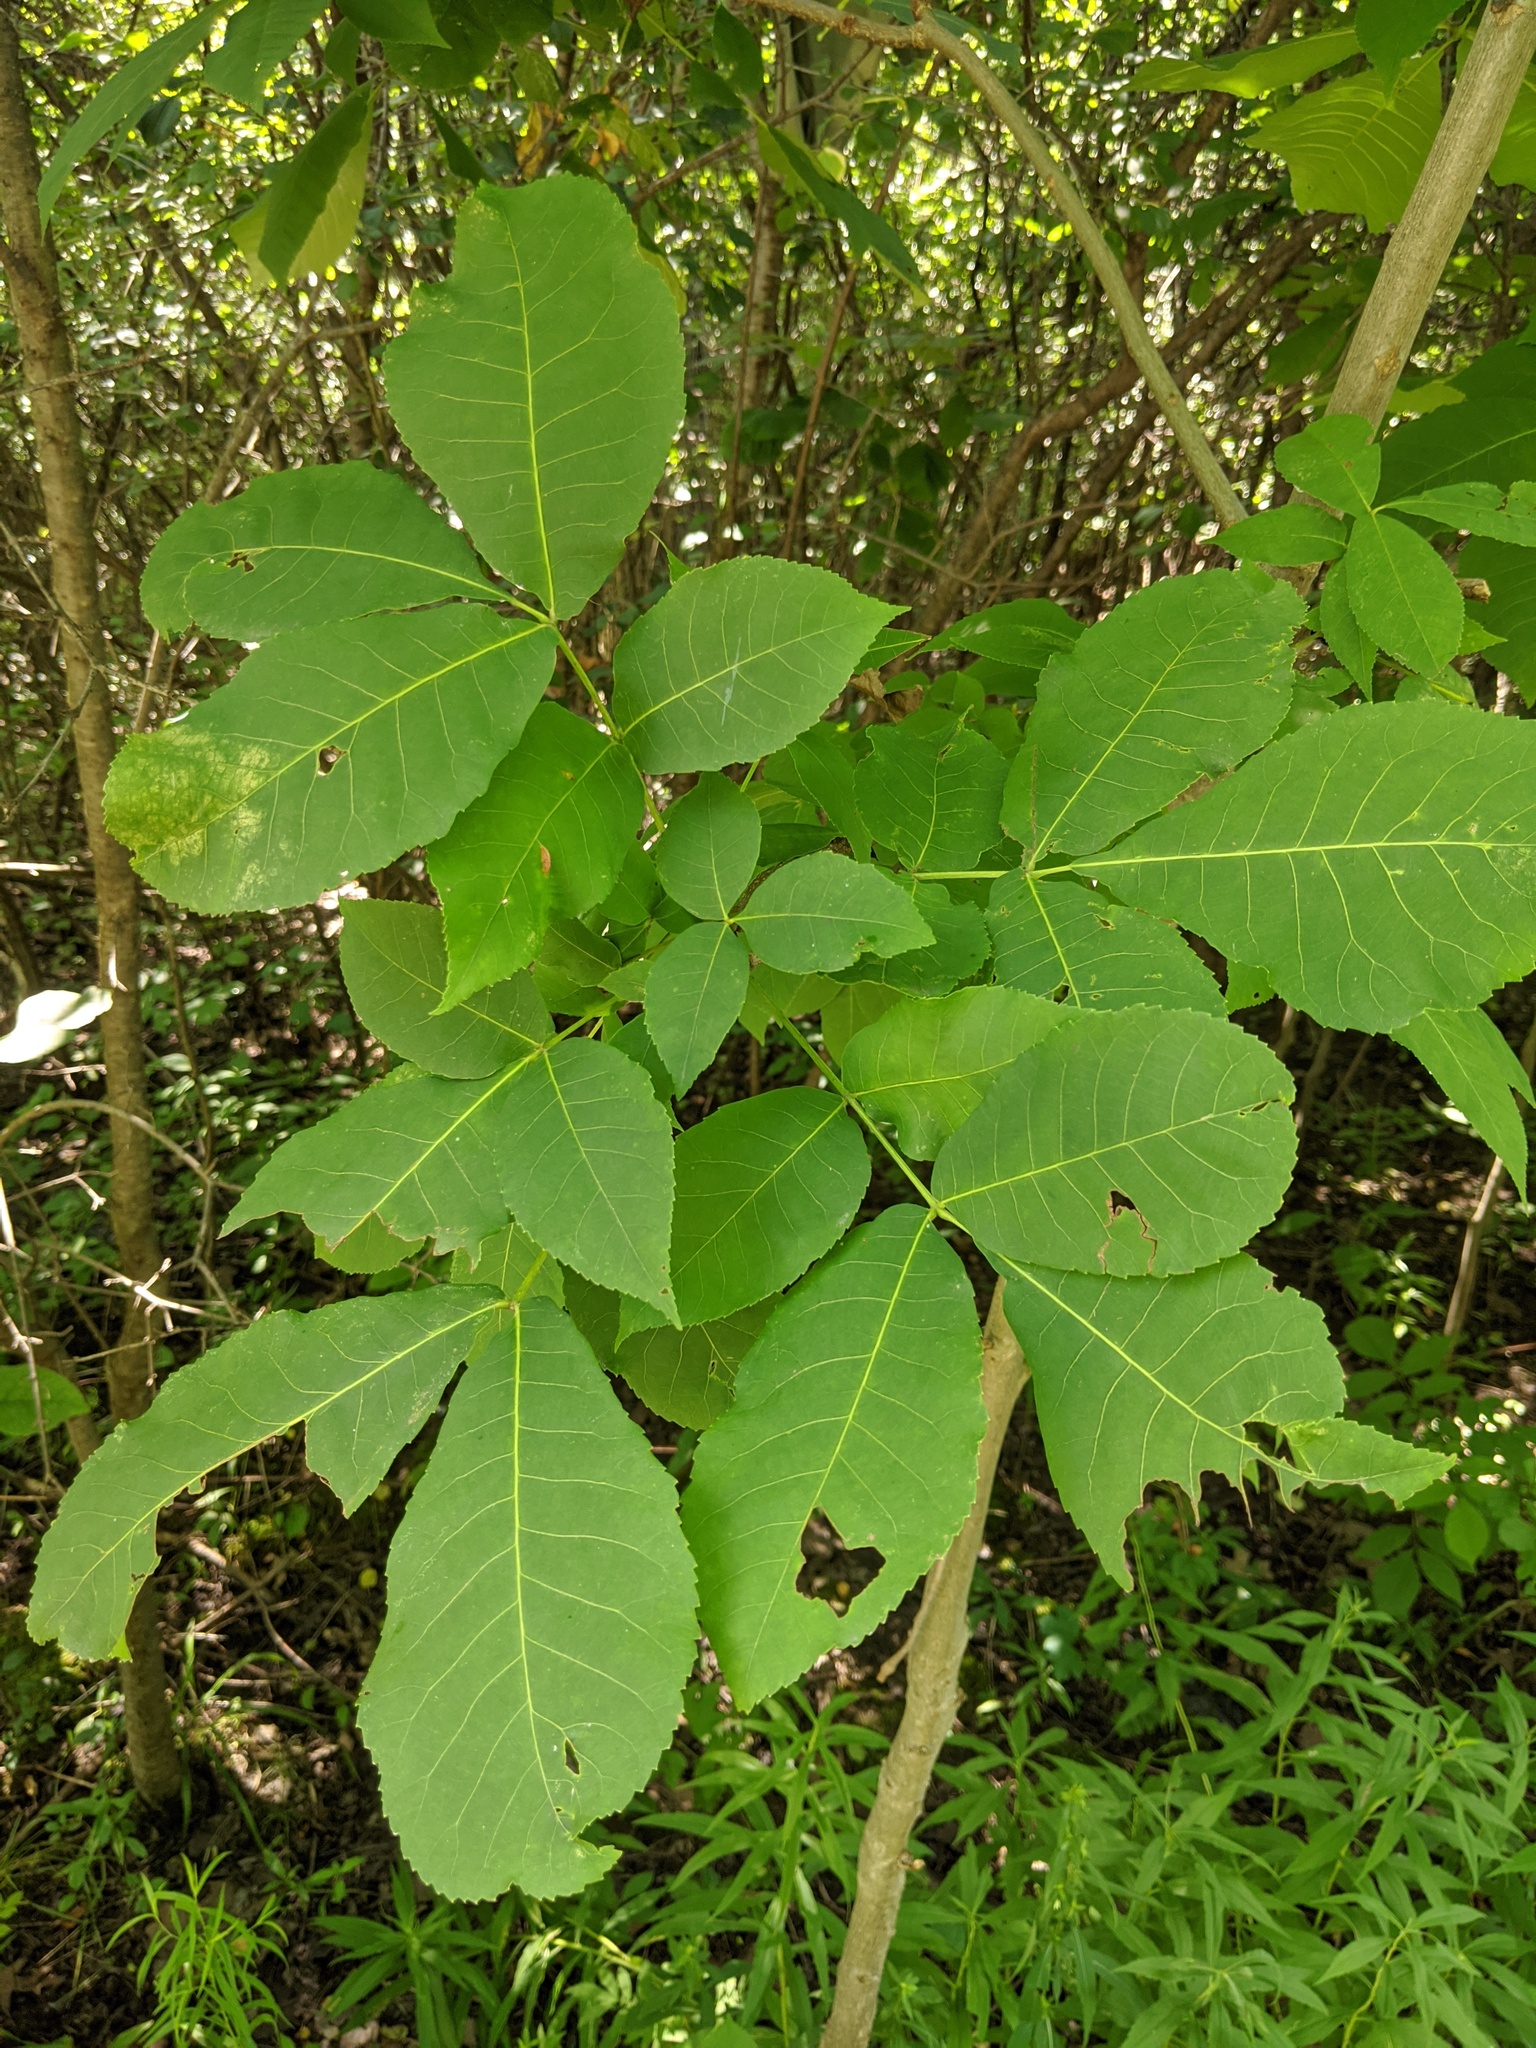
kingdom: Plantae
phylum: Tracheophyta
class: Magnoliopsida
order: Fagales
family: Juglandaceae
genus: Carya
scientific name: Carya ovata
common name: Shagbark hickory
